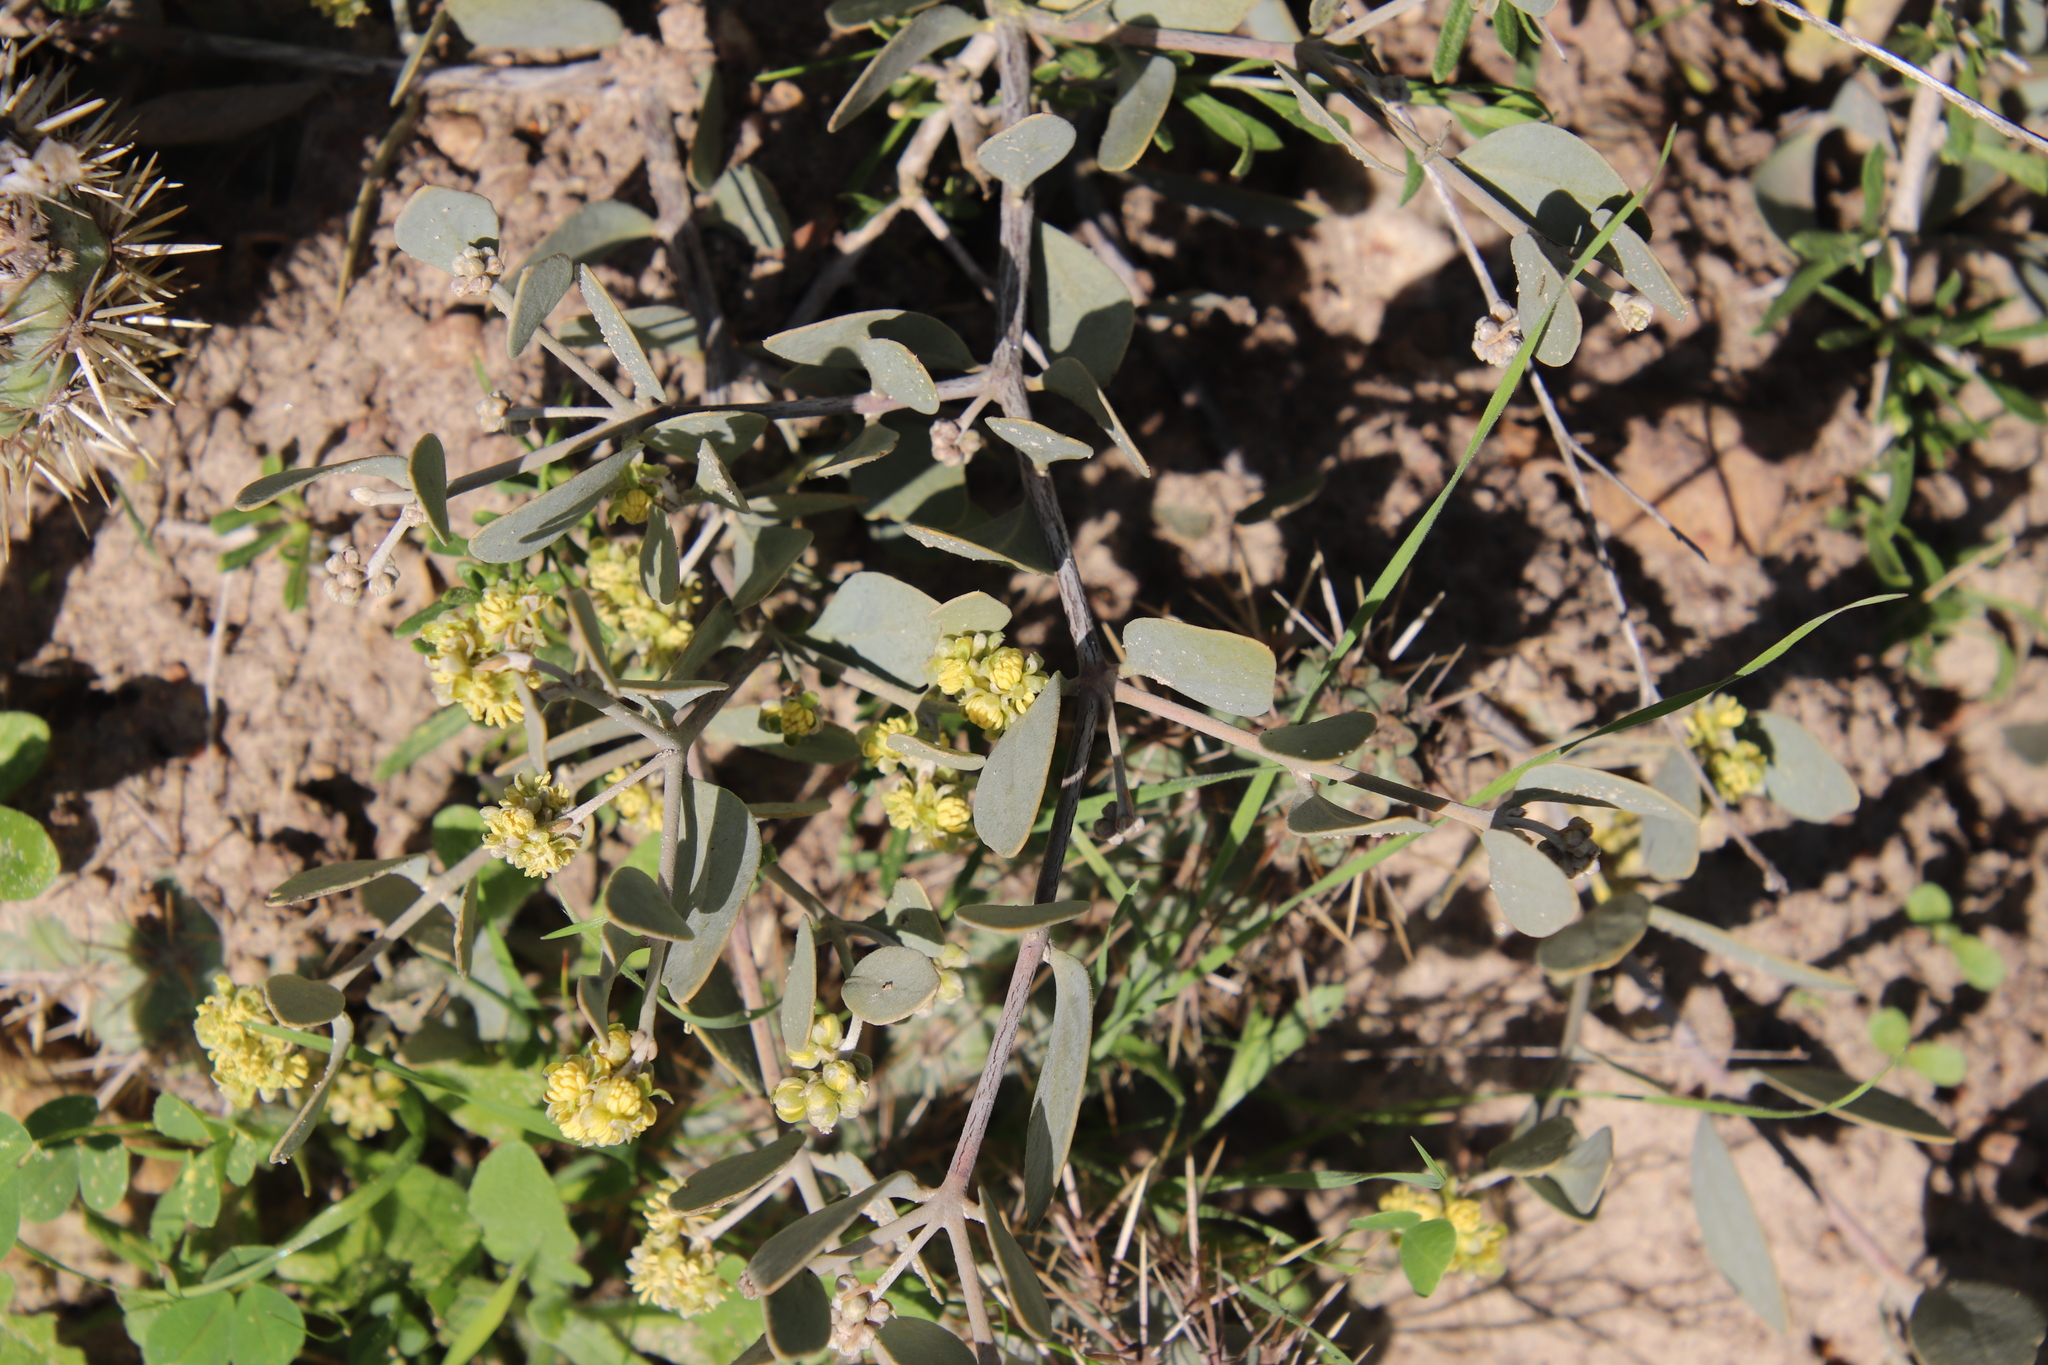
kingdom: Plantae
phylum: Tracheophyta
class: Magnoliopsida
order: Caryophyllales
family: Simmondsiaceae
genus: Simmondsia
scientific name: Simmondsia chinensis
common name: Jojoba
